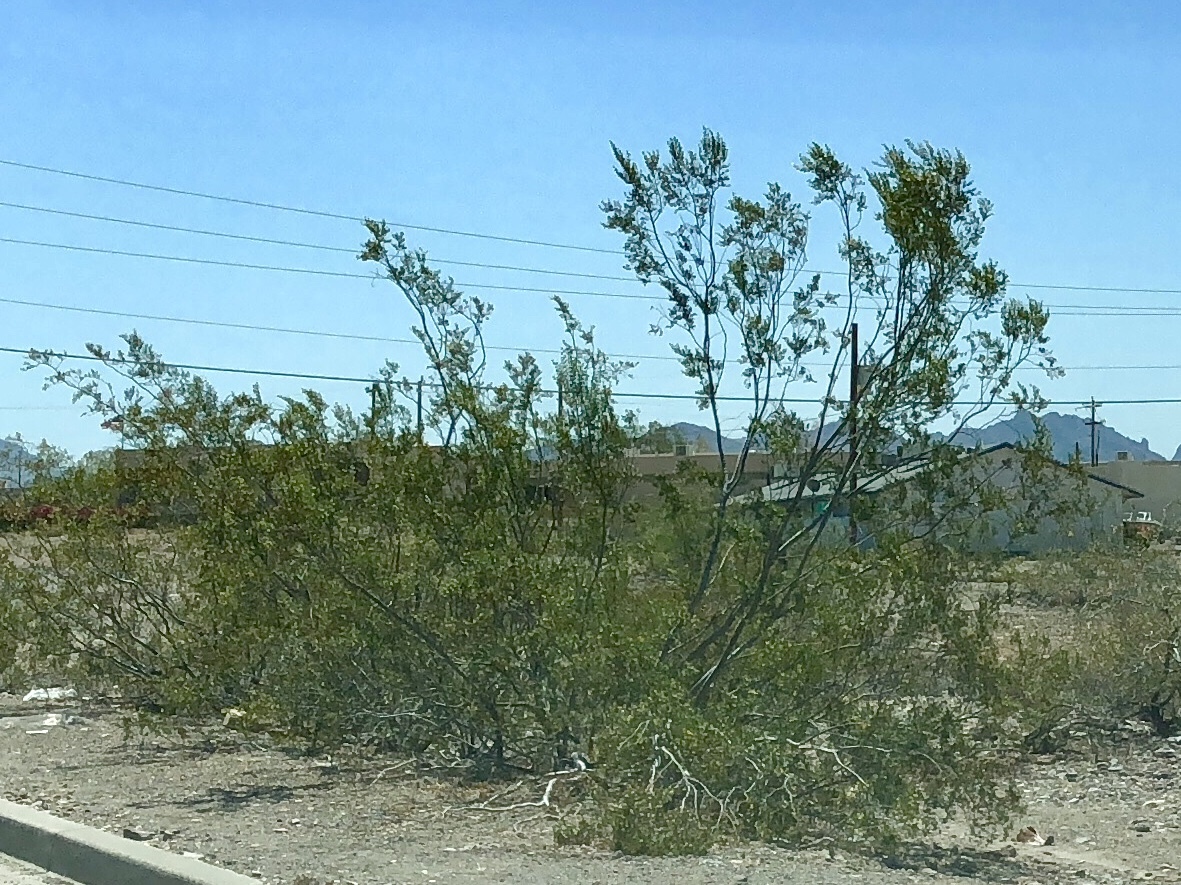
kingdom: Plantae
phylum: Tracheophyta
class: Magnoliopsida
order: Zygophyllales
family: Zygophyllaceae
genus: Larrea
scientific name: Larrea tridentata
